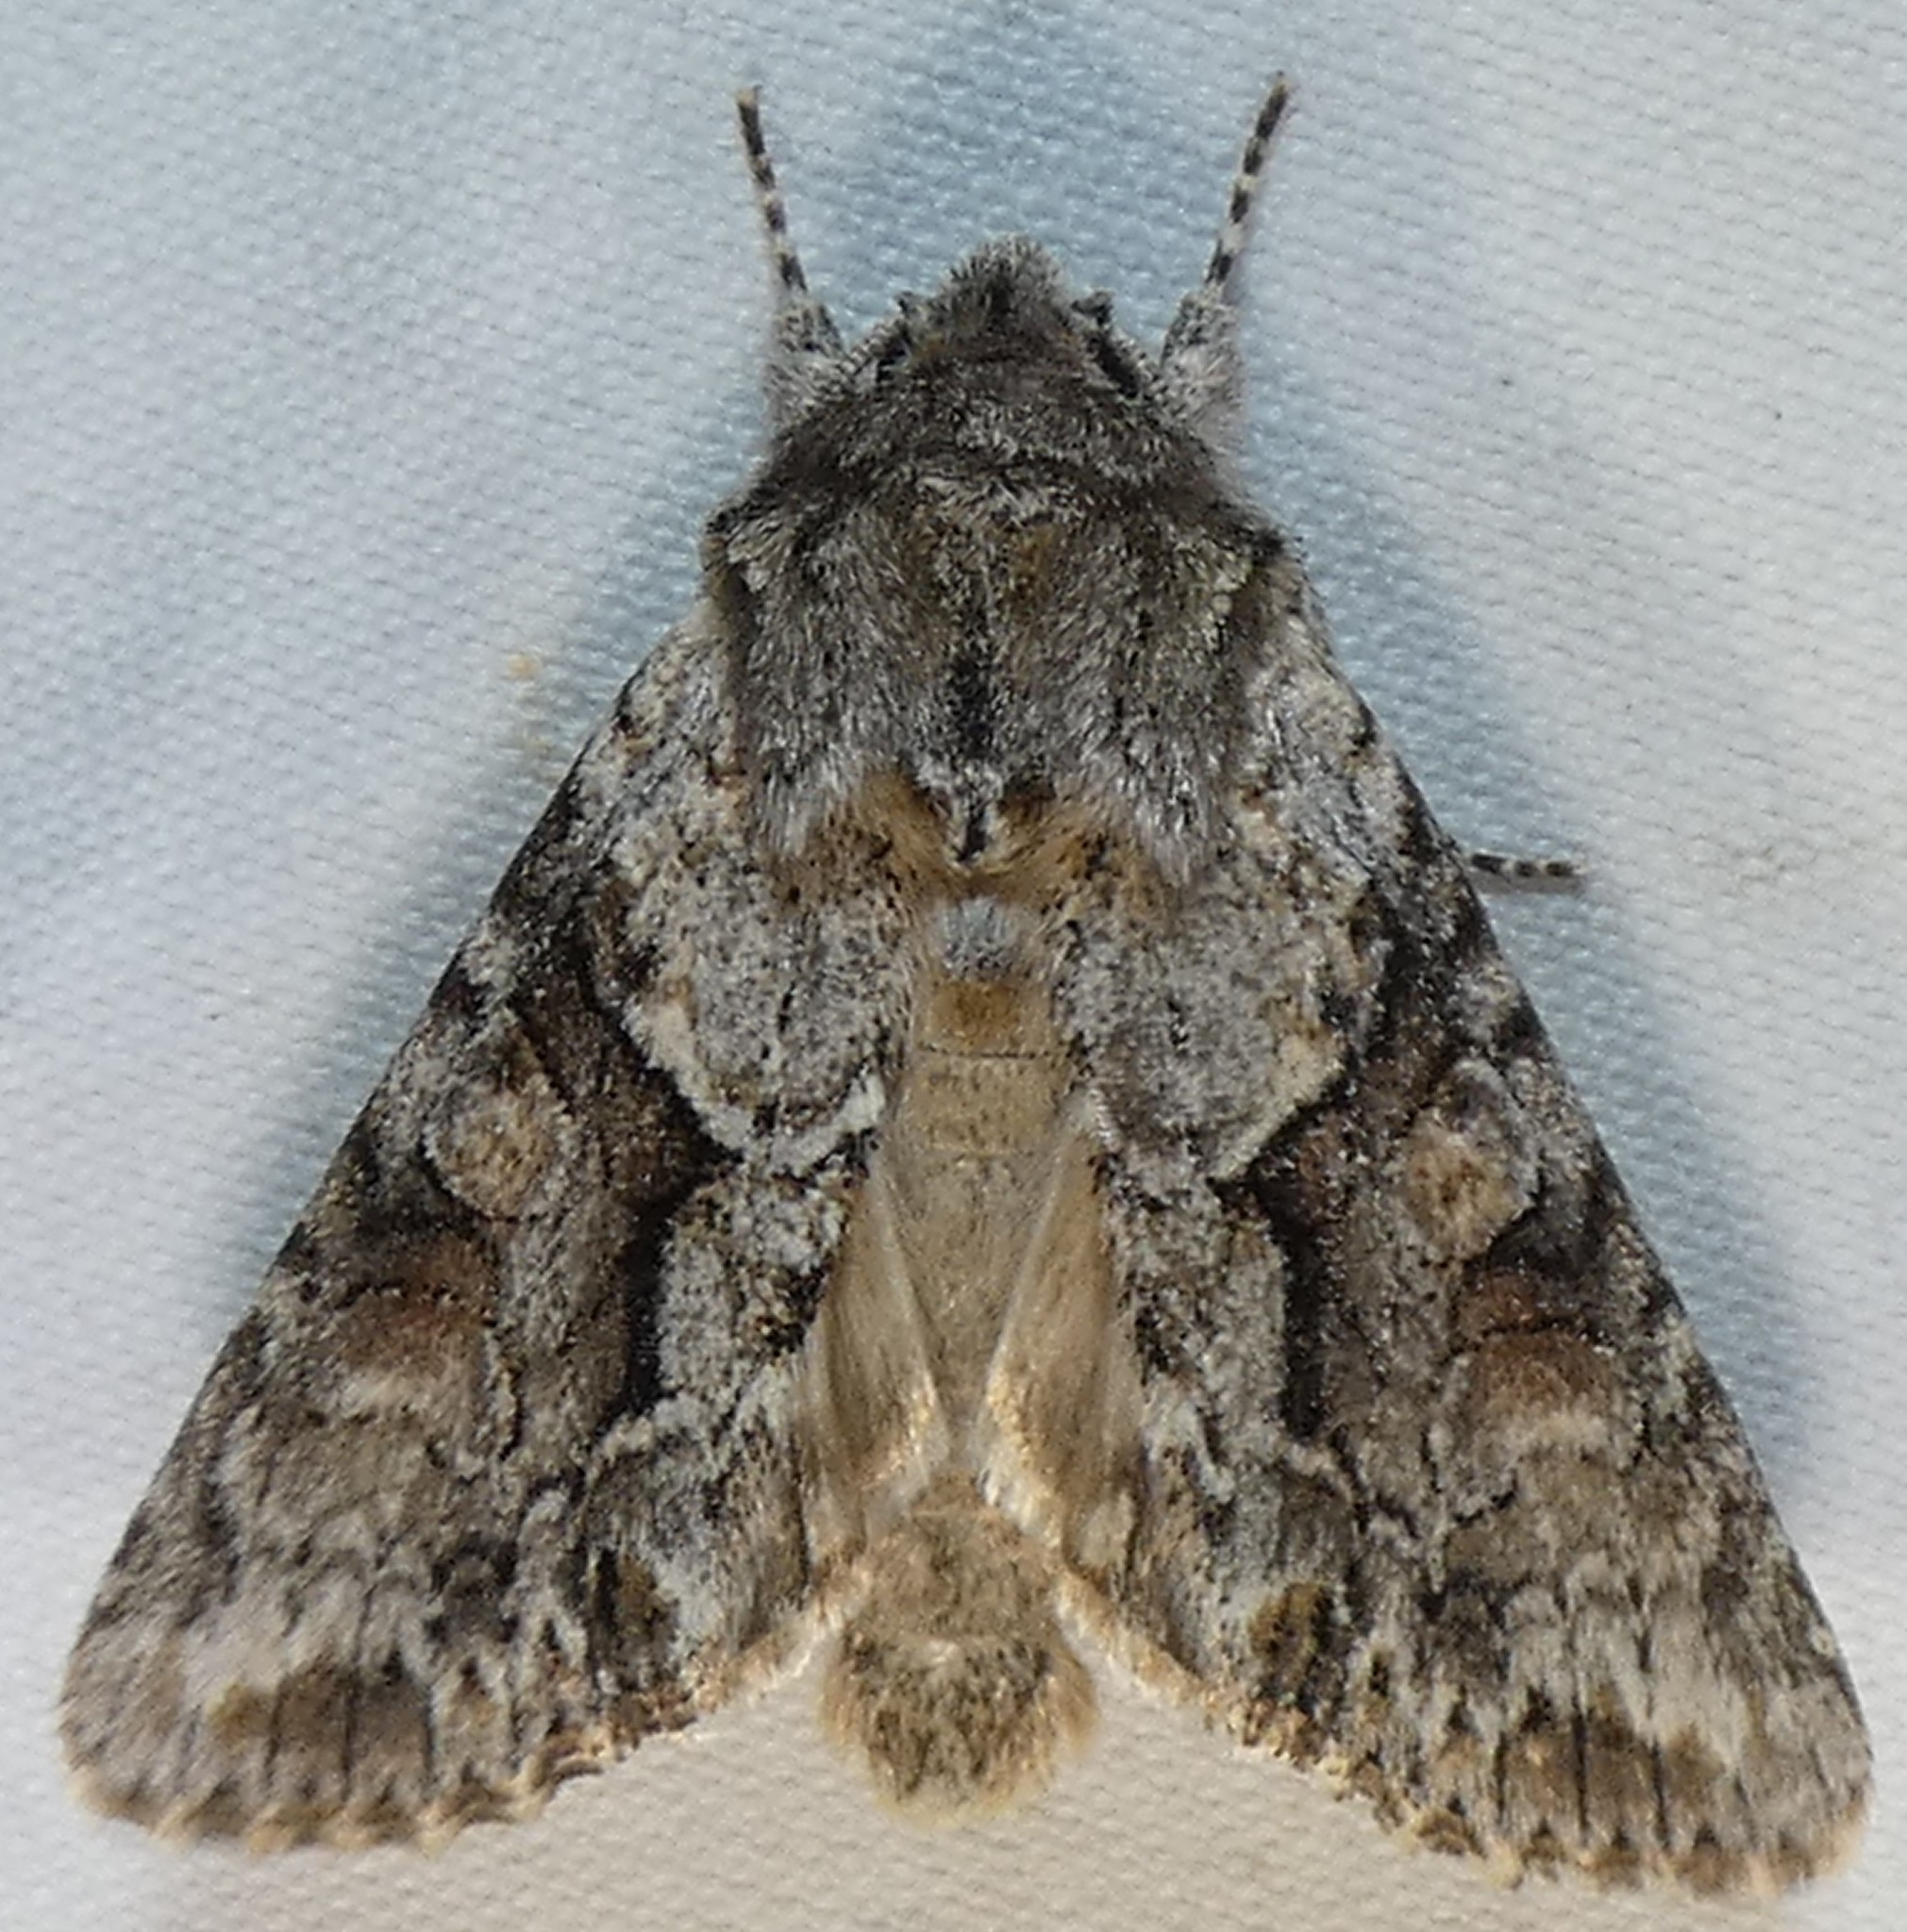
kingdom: Animalia
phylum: Arthropoda
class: Insecta
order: Lepidoptera
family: Noctuidae
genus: Achatia
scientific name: Achatia distincta
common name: Distinct quaker
